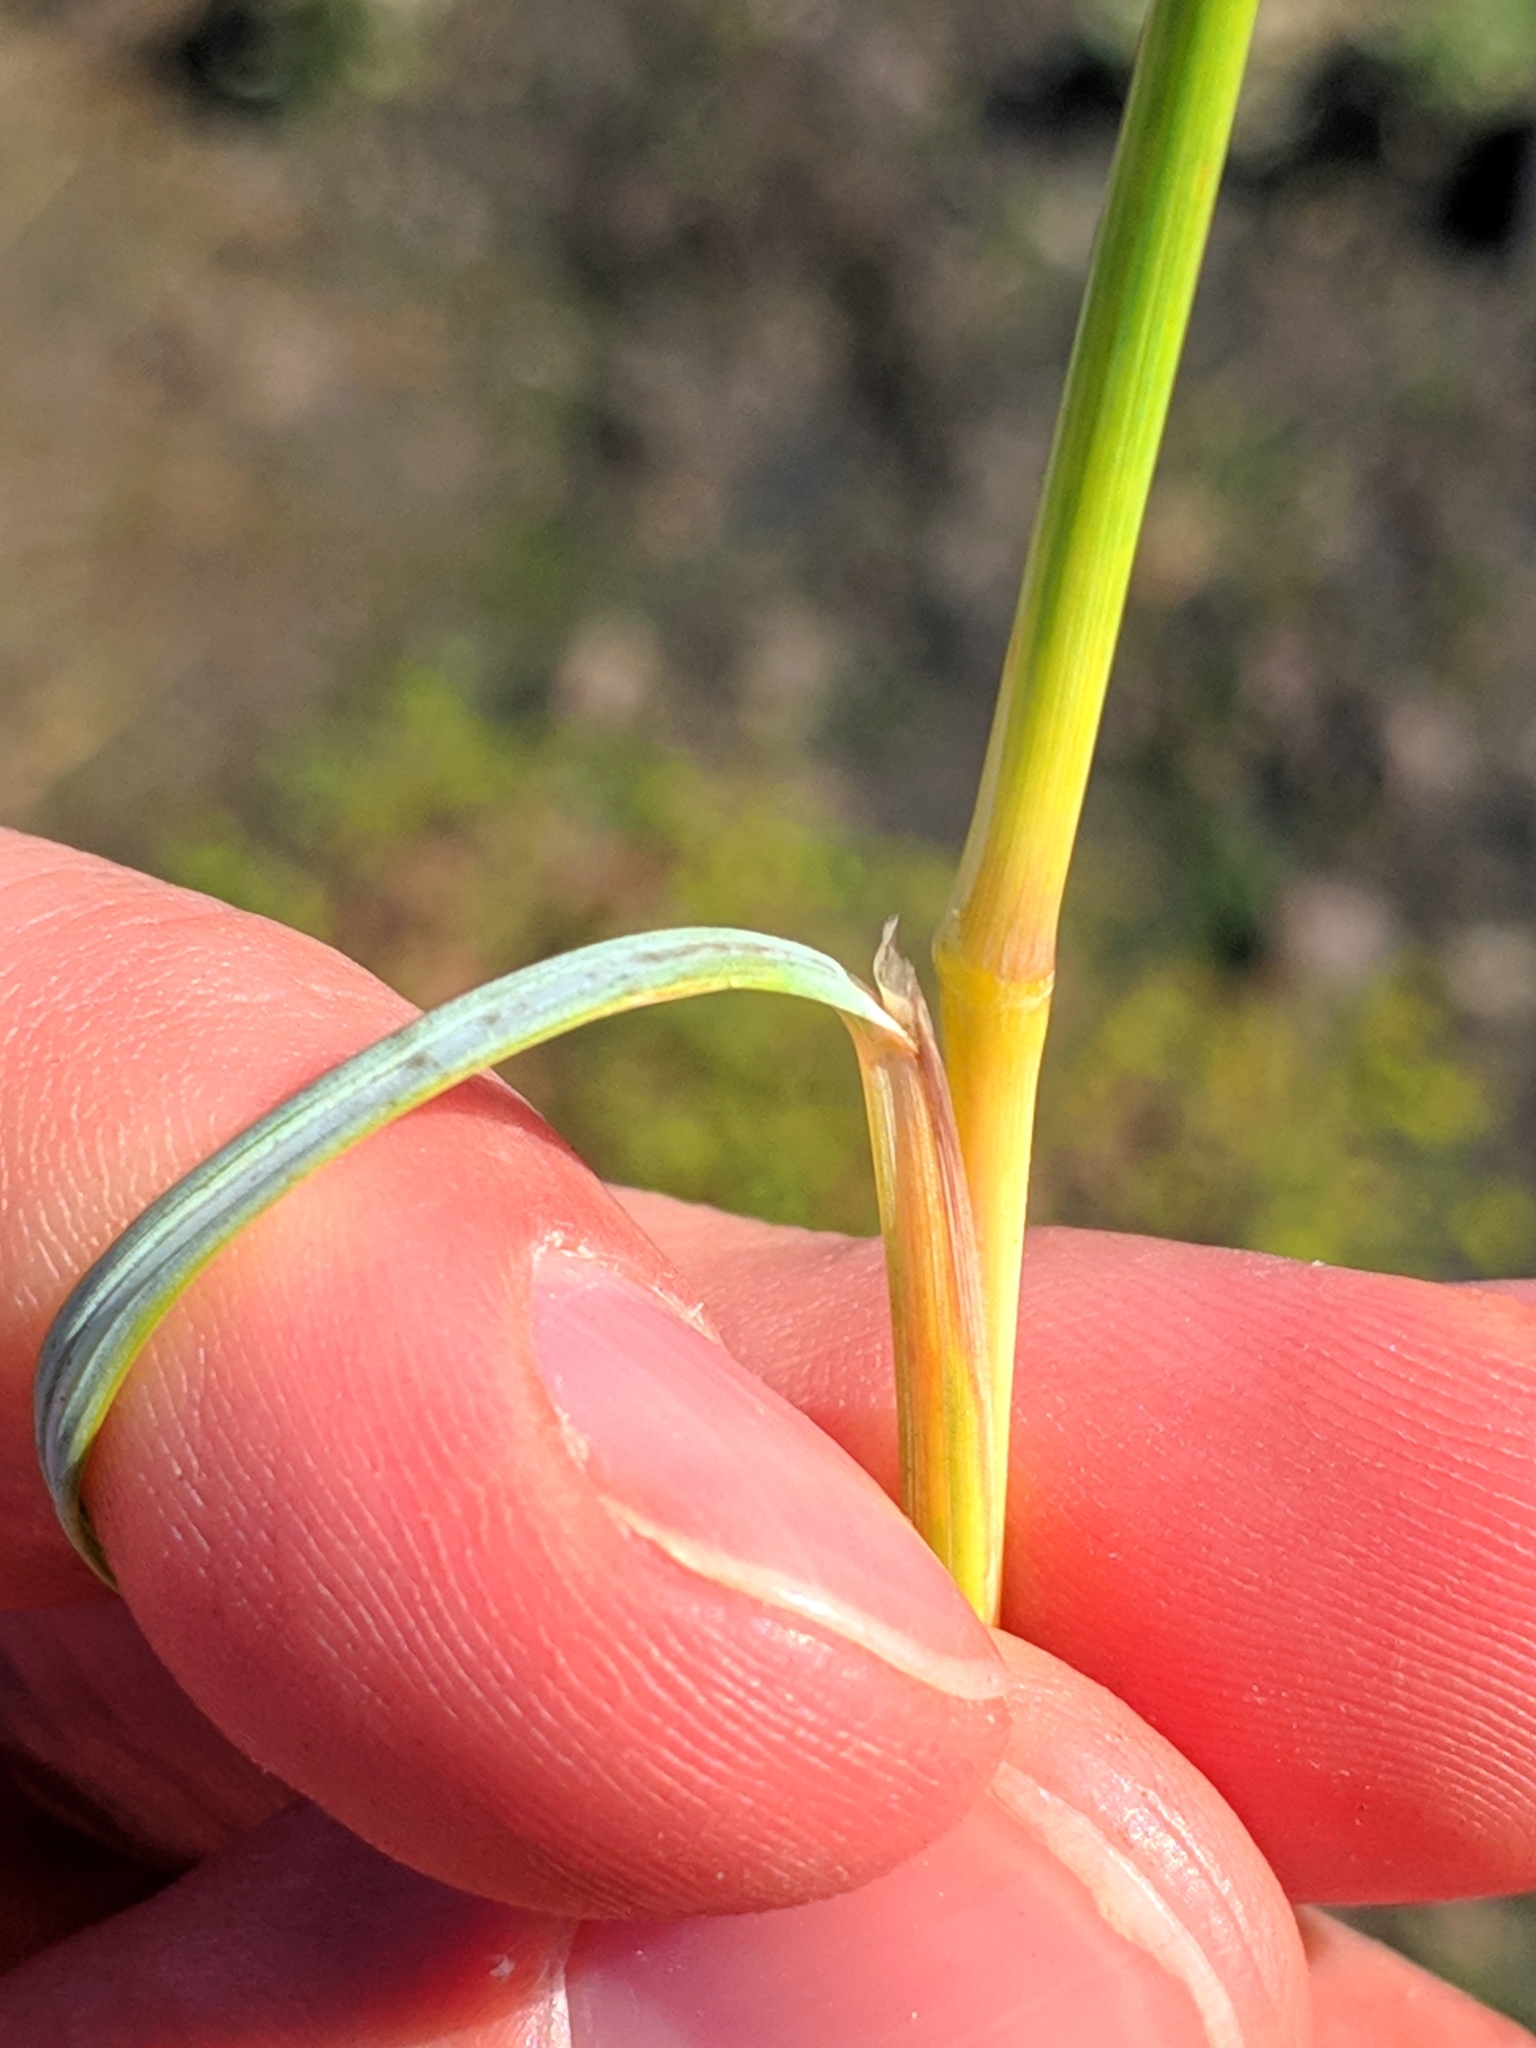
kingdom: Plantae
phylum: Tracheophyta
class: Liliopsida
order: Poales
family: Poaceae
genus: Hyparrhenia
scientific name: Hyparrhenia hirta
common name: Thatching grass
